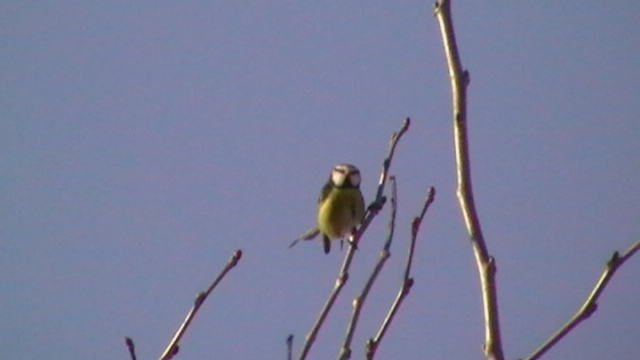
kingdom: Animalia
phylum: Chordata
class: Aves
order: Passeriformes
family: Paridae
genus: Cyanistes
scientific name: Cyanistes caeruleus
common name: Eurasian blue tit
